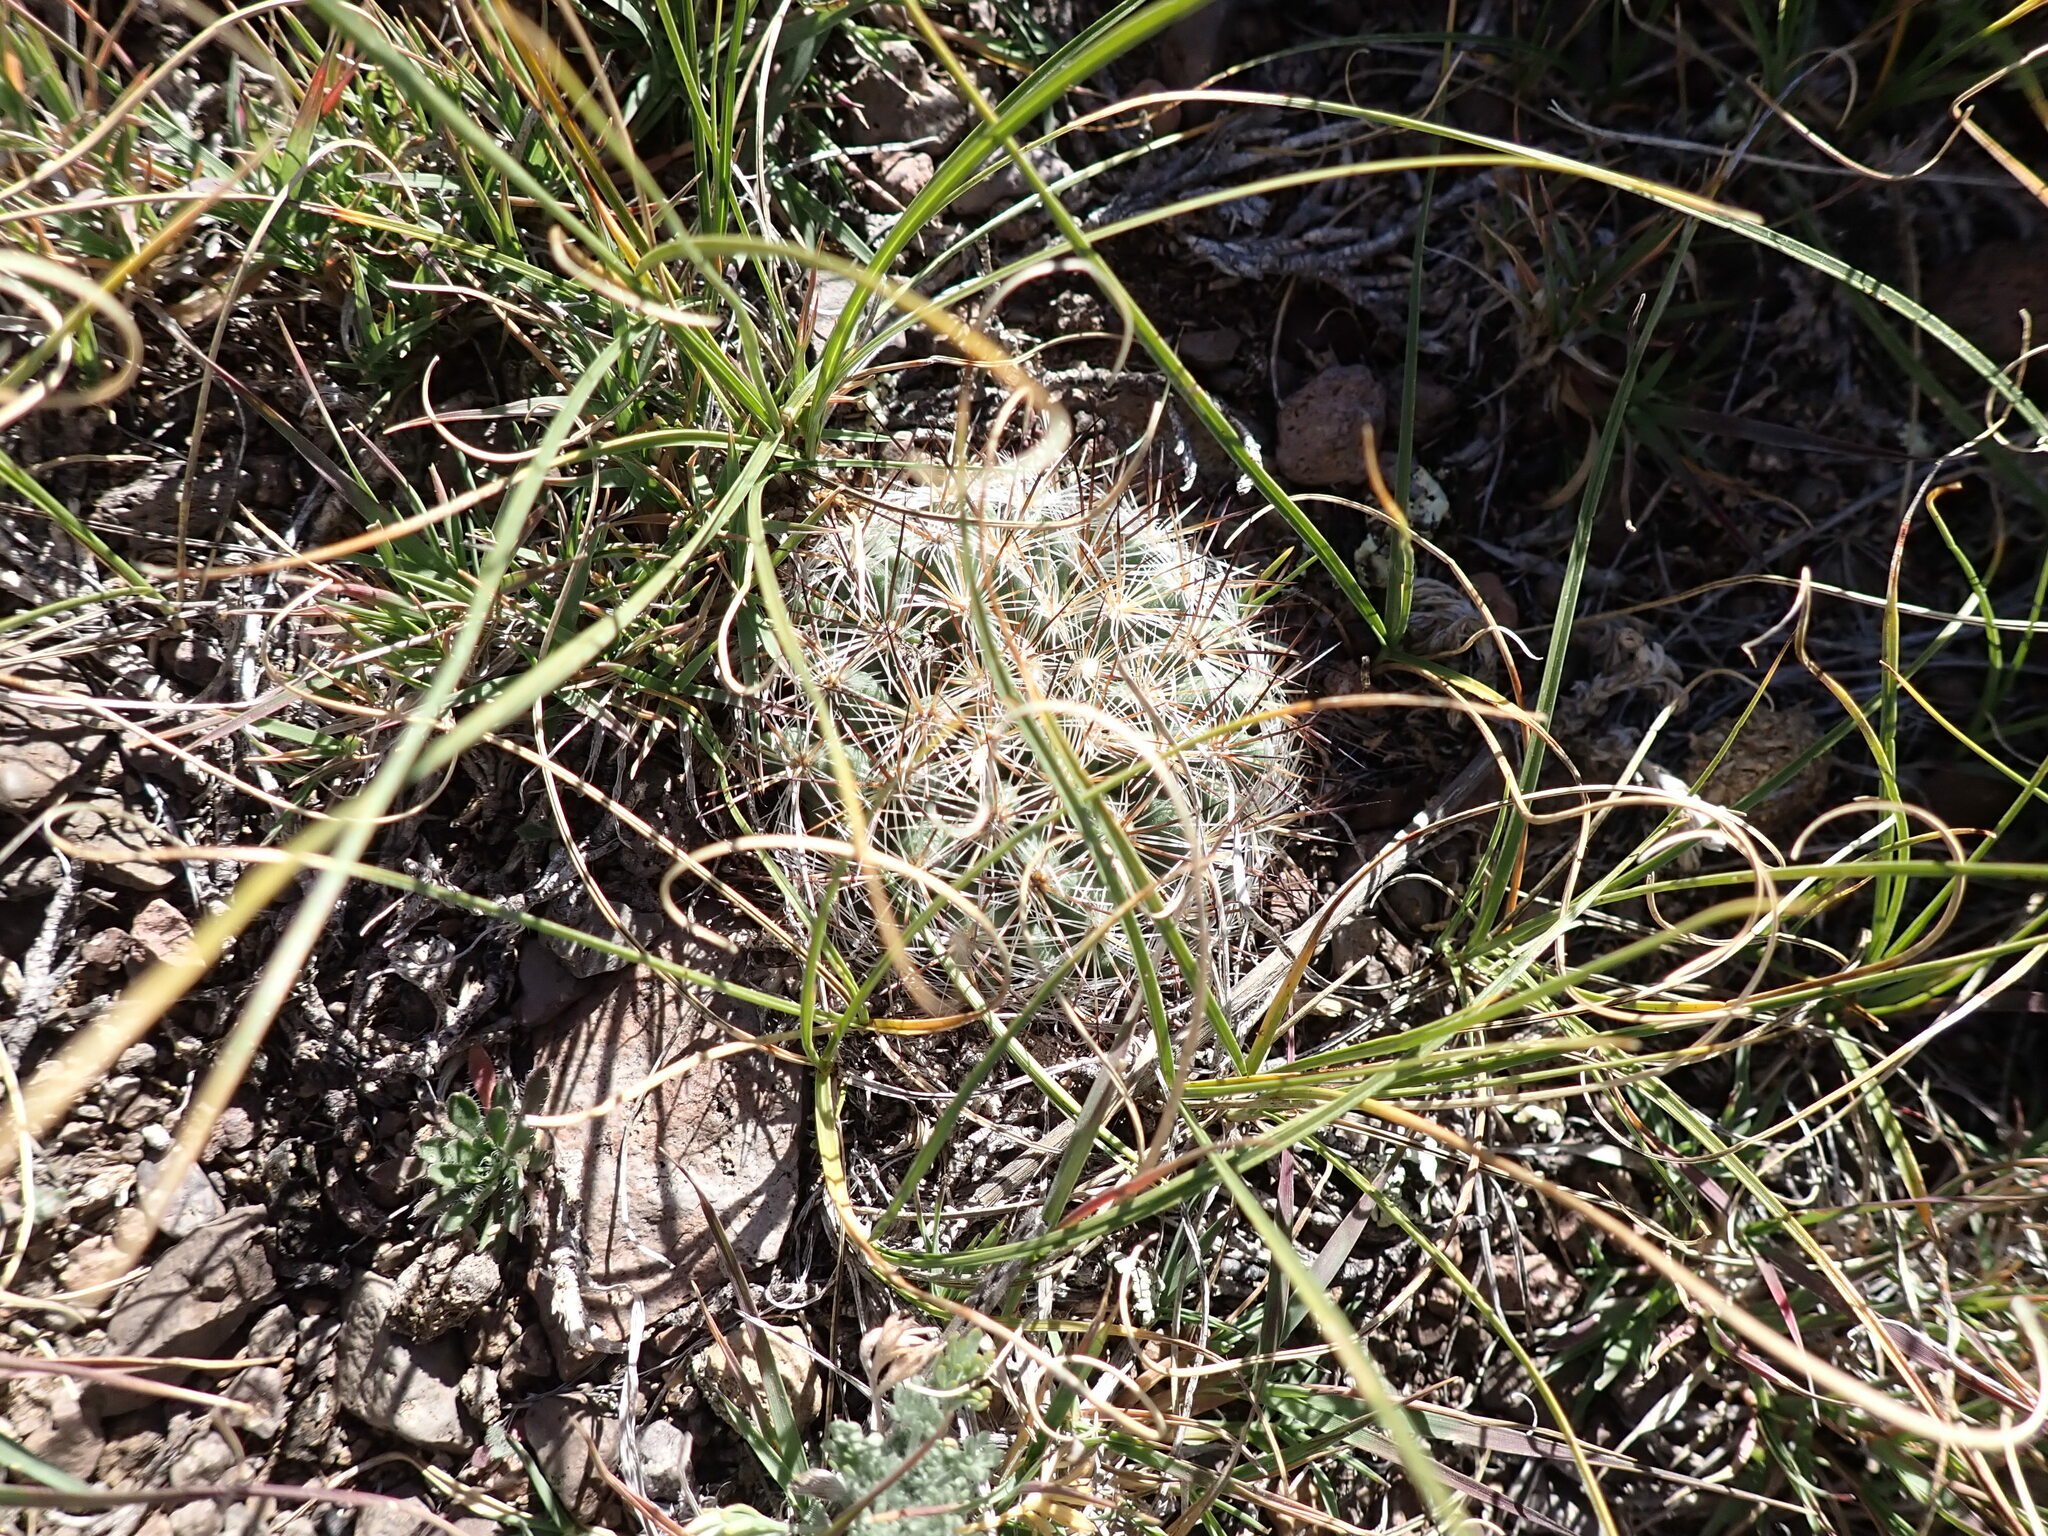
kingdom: Plantae
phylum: Tracheophyta
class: Magnoliopsida
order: Caryophyllales
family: Cactaceae
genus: Pediocactus
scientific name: Pediocactus simpsonii
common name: Simpson's hedgehog cactus
